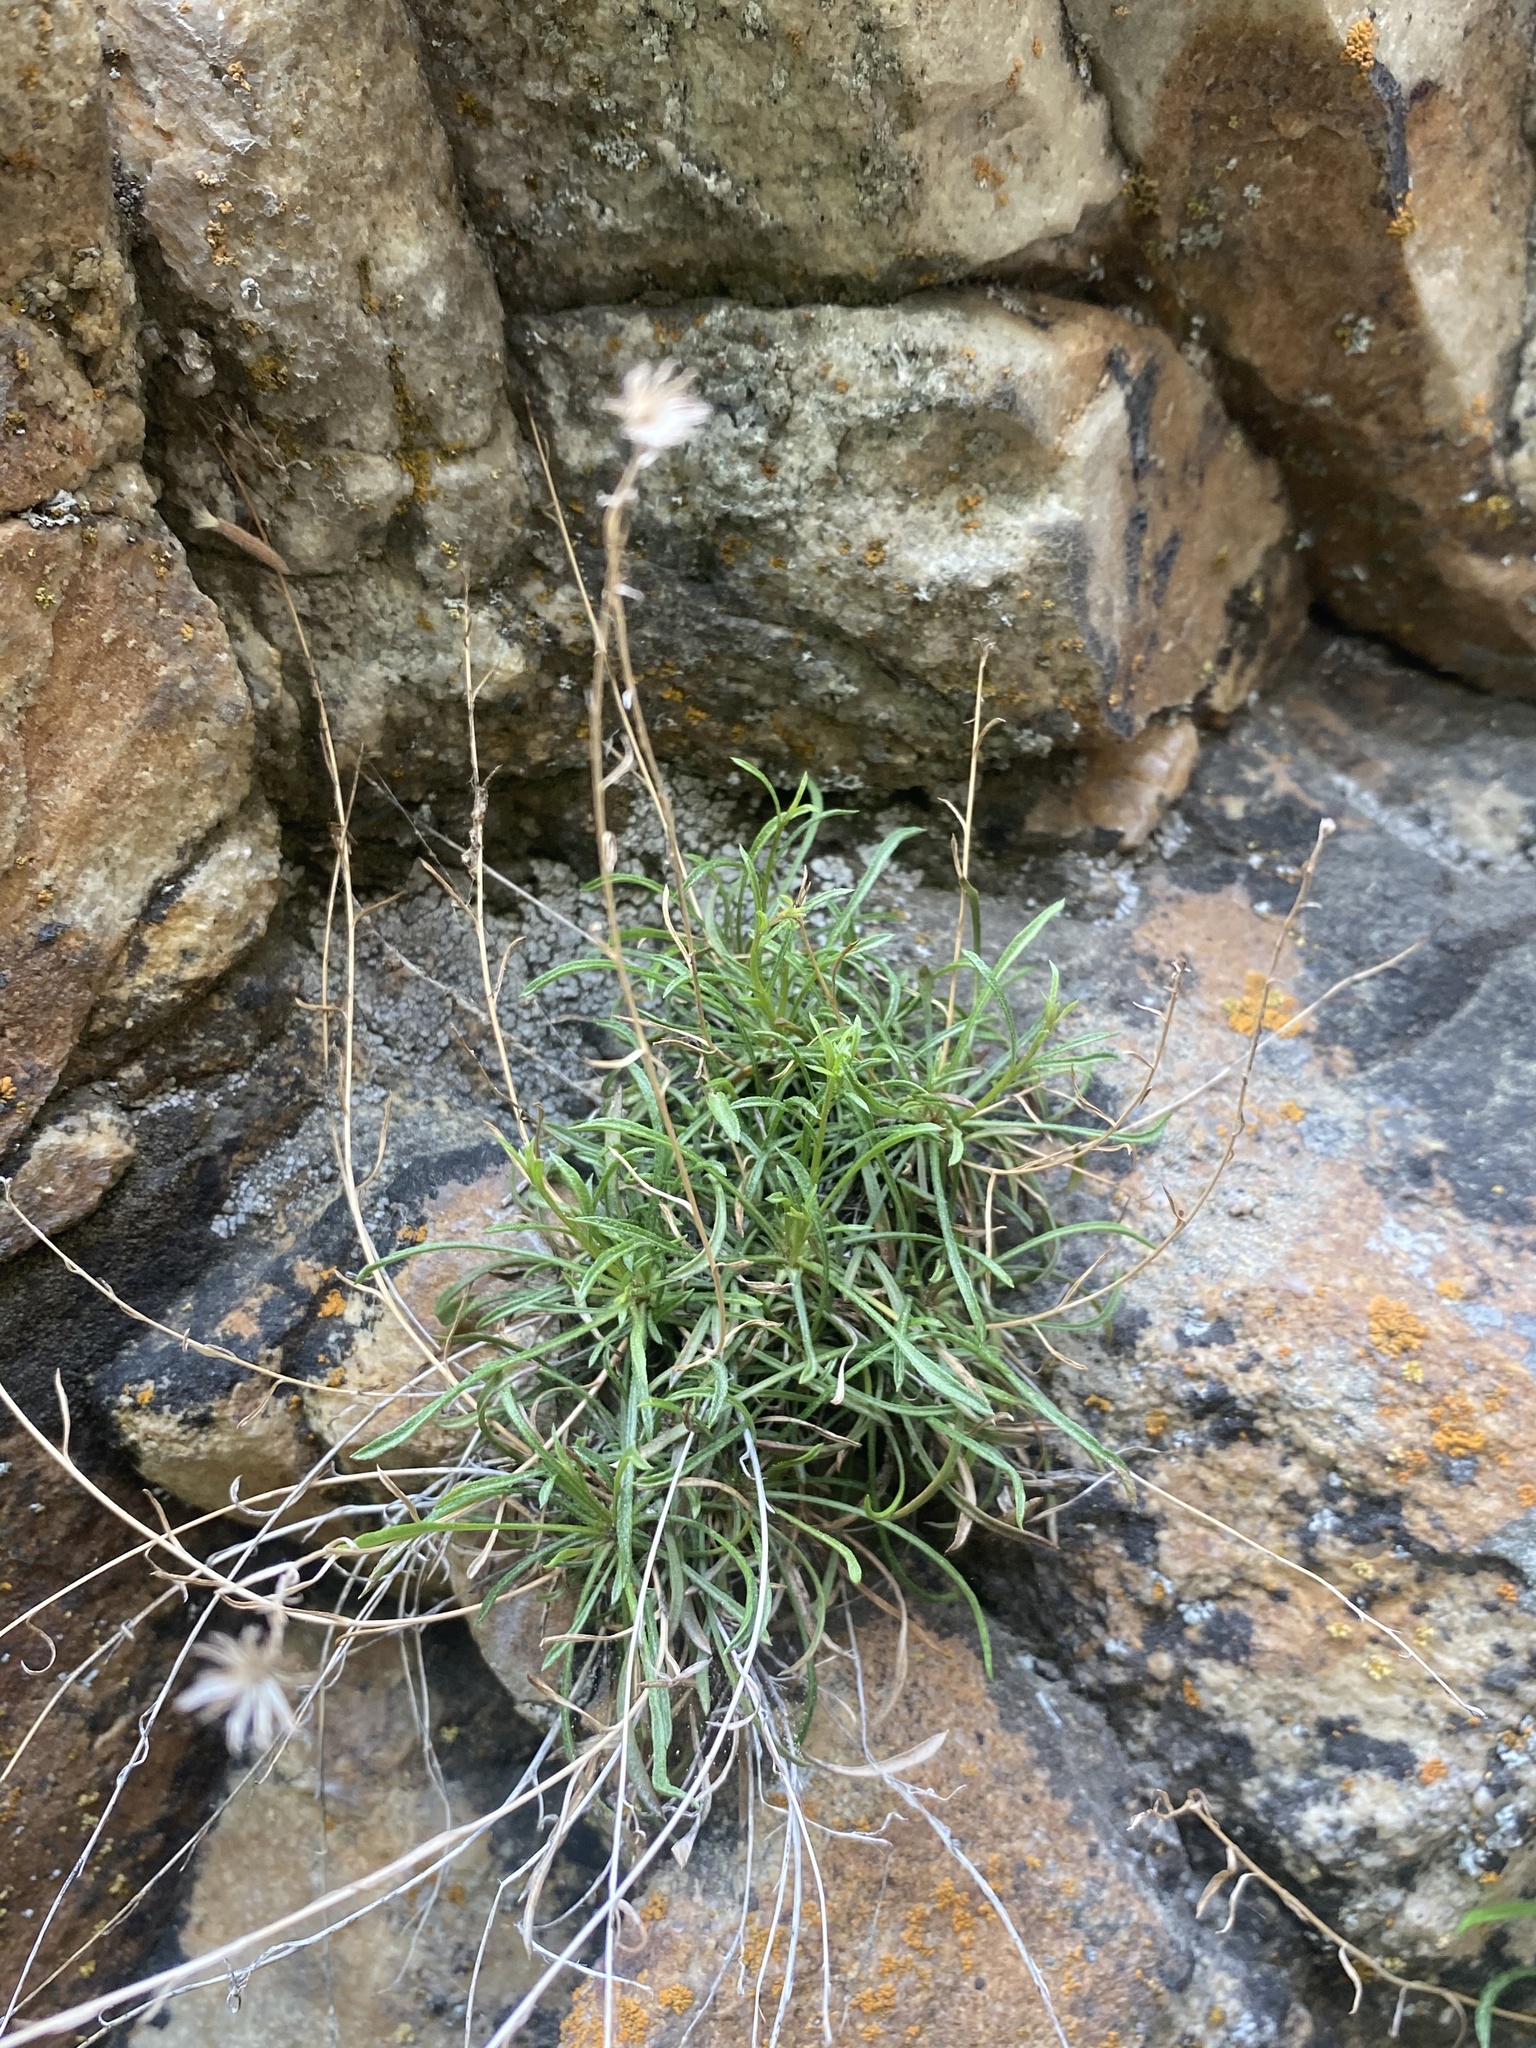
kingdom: Plantae
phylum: Tracheophyta
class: Magnoliopsida
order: Asterales
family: Asteraceae
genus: Erigeron
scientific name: Erigeron arenarioides
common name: Wasatch fleabane
